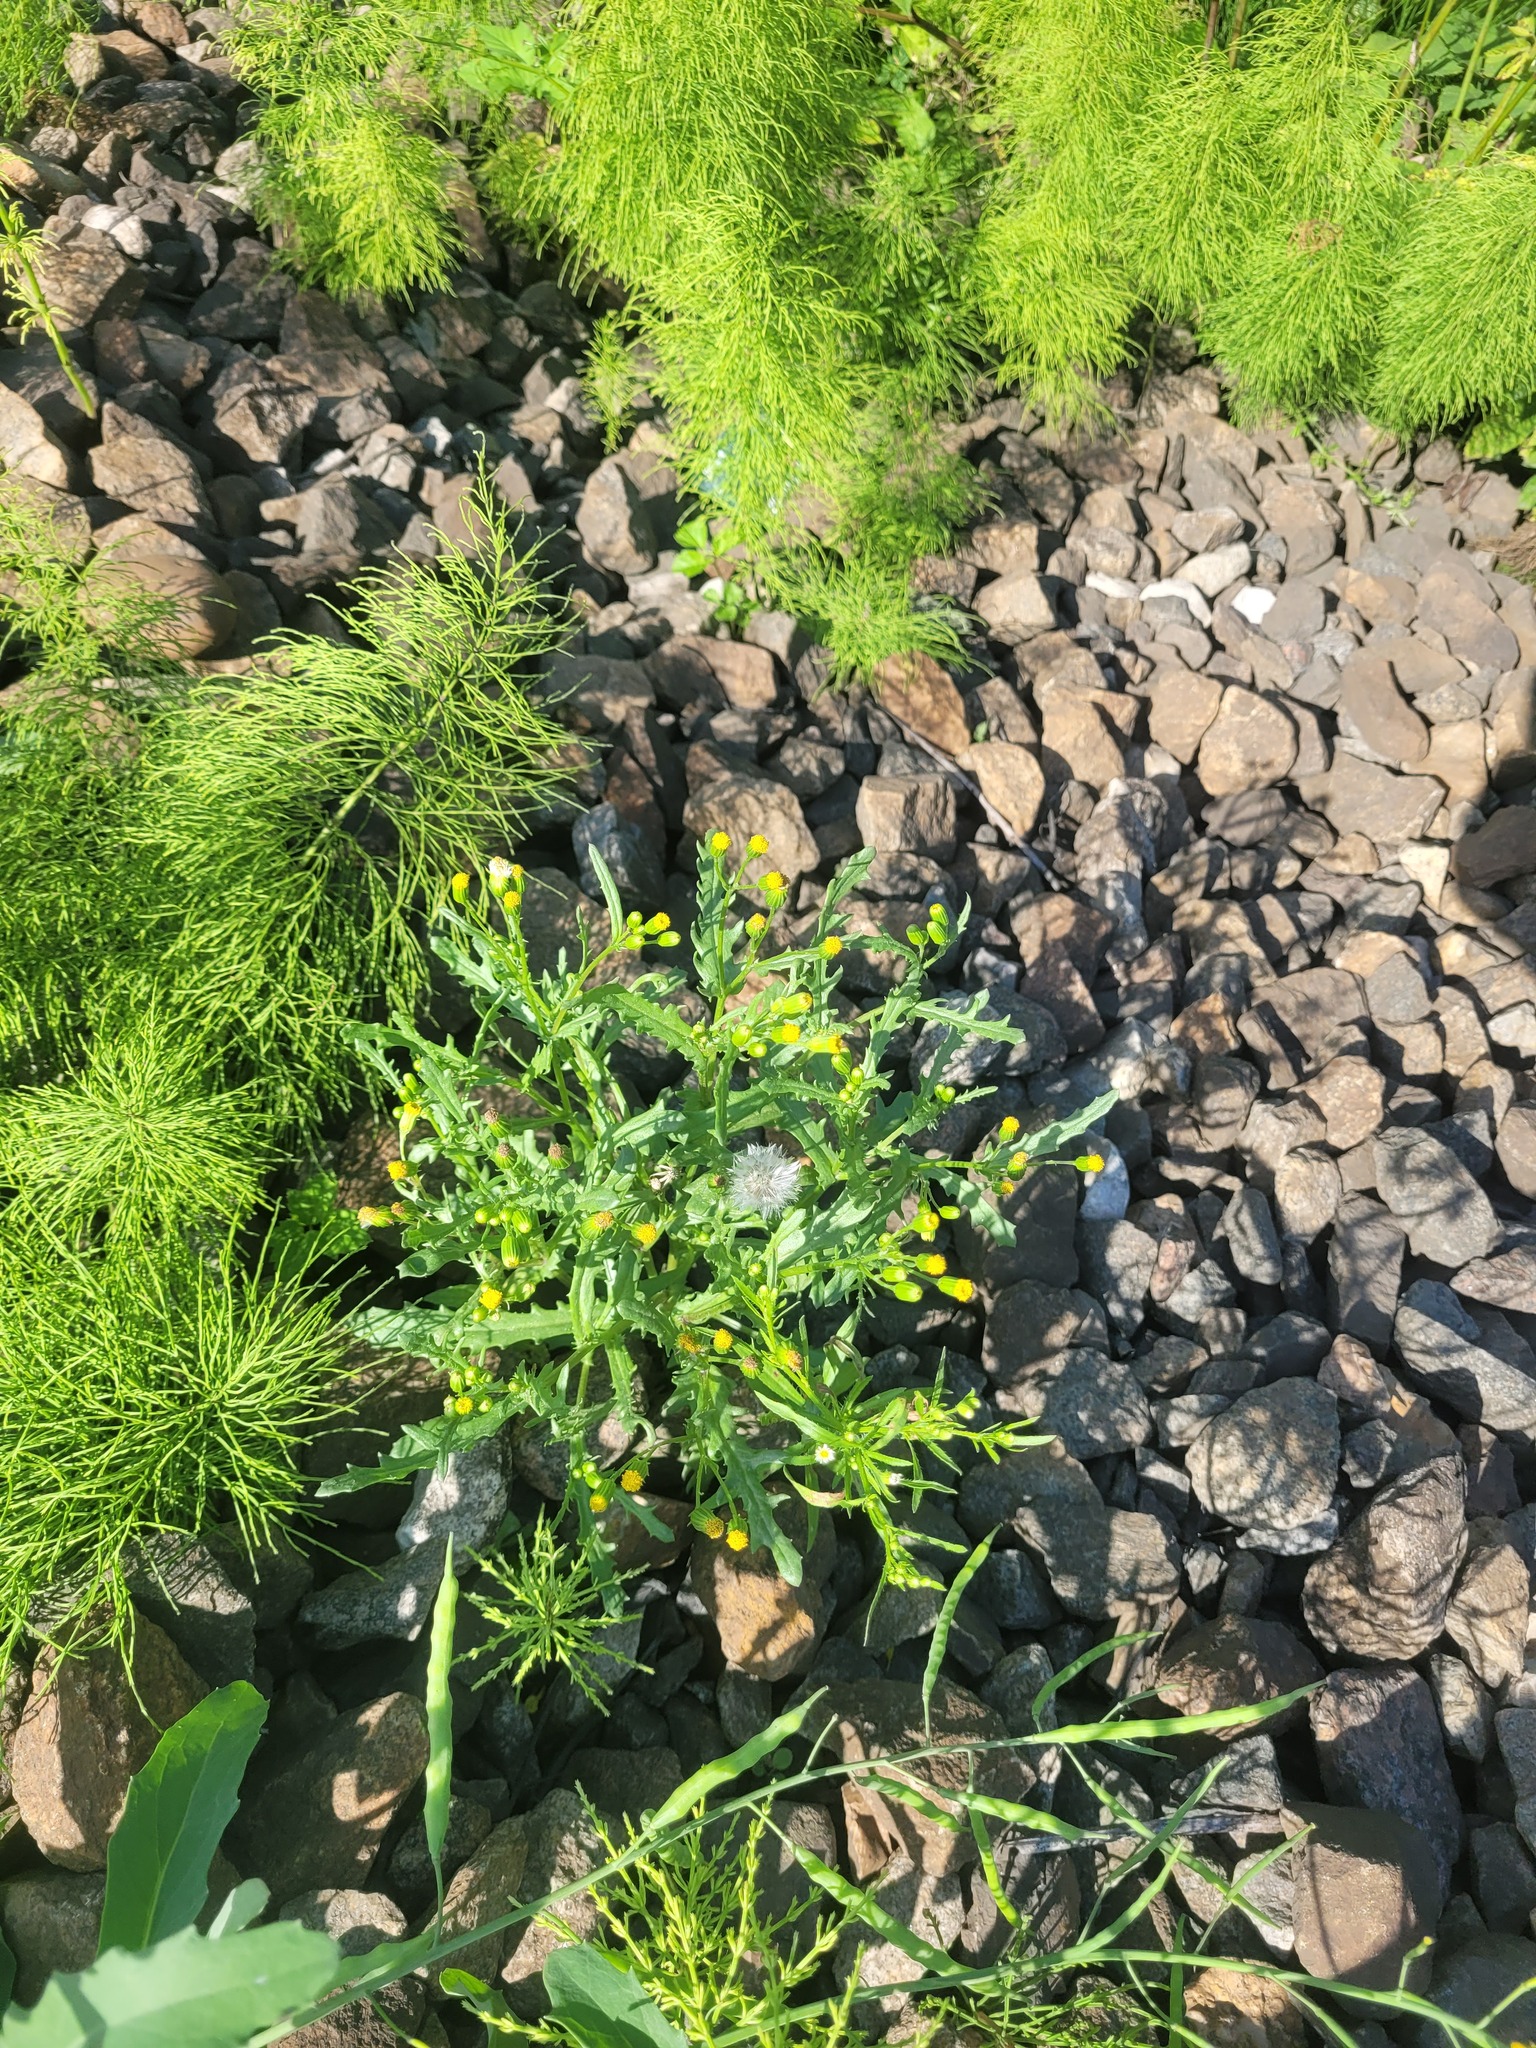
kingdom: Plantae
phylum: Tracheophyta
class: Magnoliopsida
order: Asterales
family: Asteraceae
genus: Senecio
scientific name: Senecio dubitabilis
